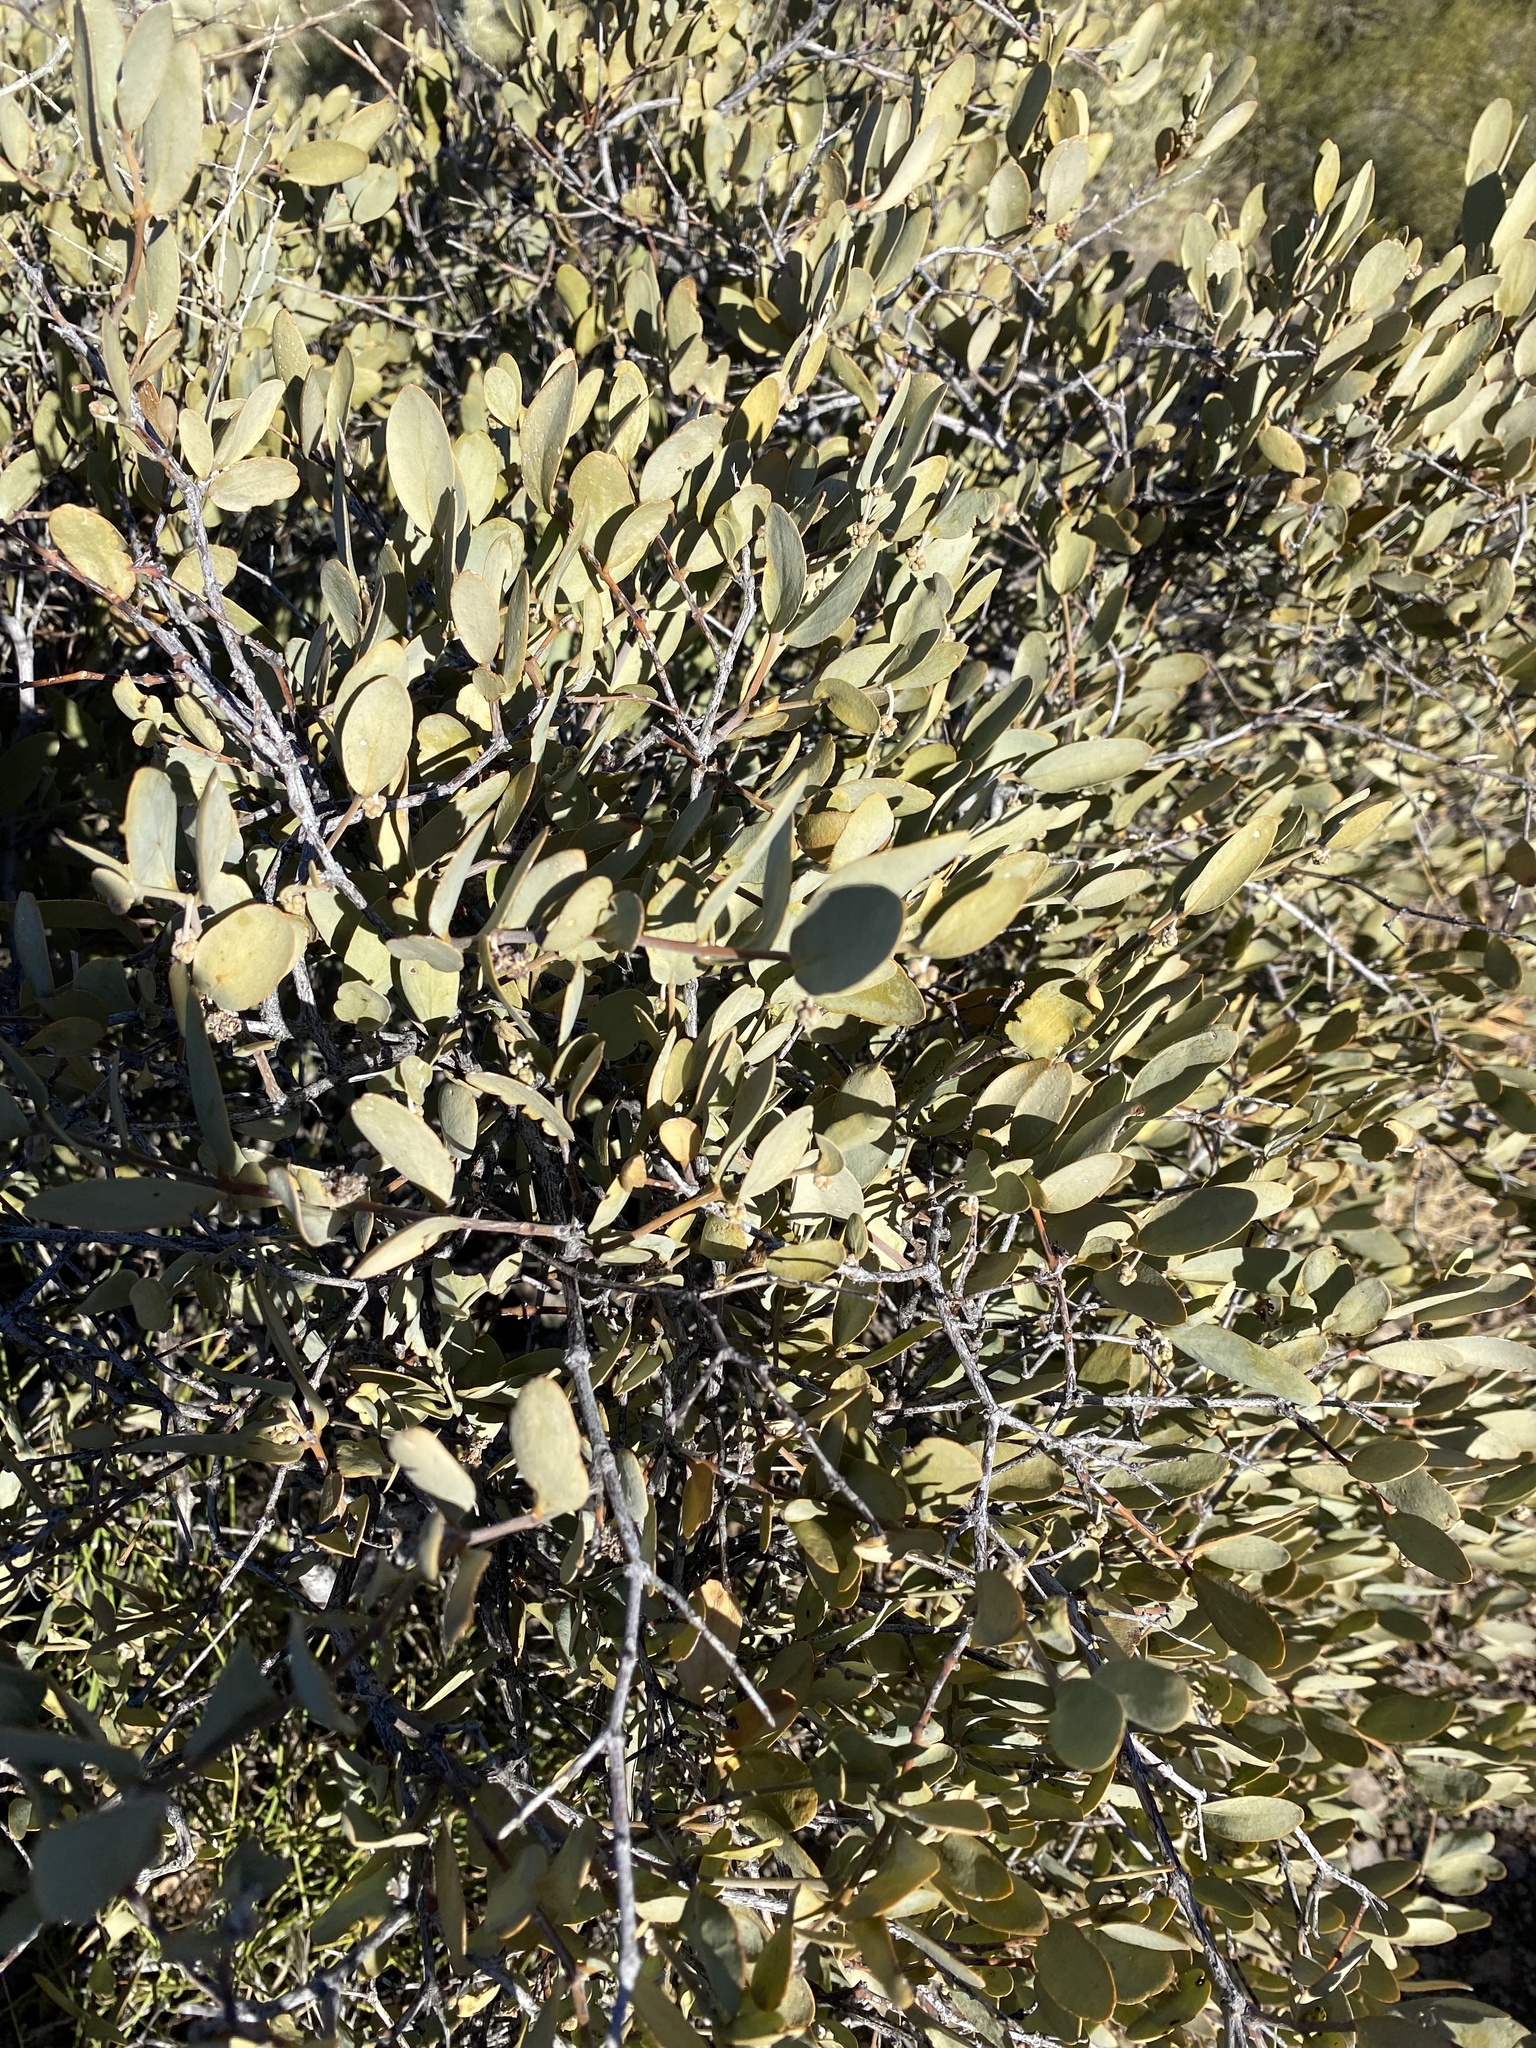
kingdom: Plantae
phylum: Tracheophyta
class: Magnoliopsida
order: Caryophyllales
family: Simmondsiaceae
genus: Simmondsia
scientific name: Simmondsia chinensis
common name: Jojoba
